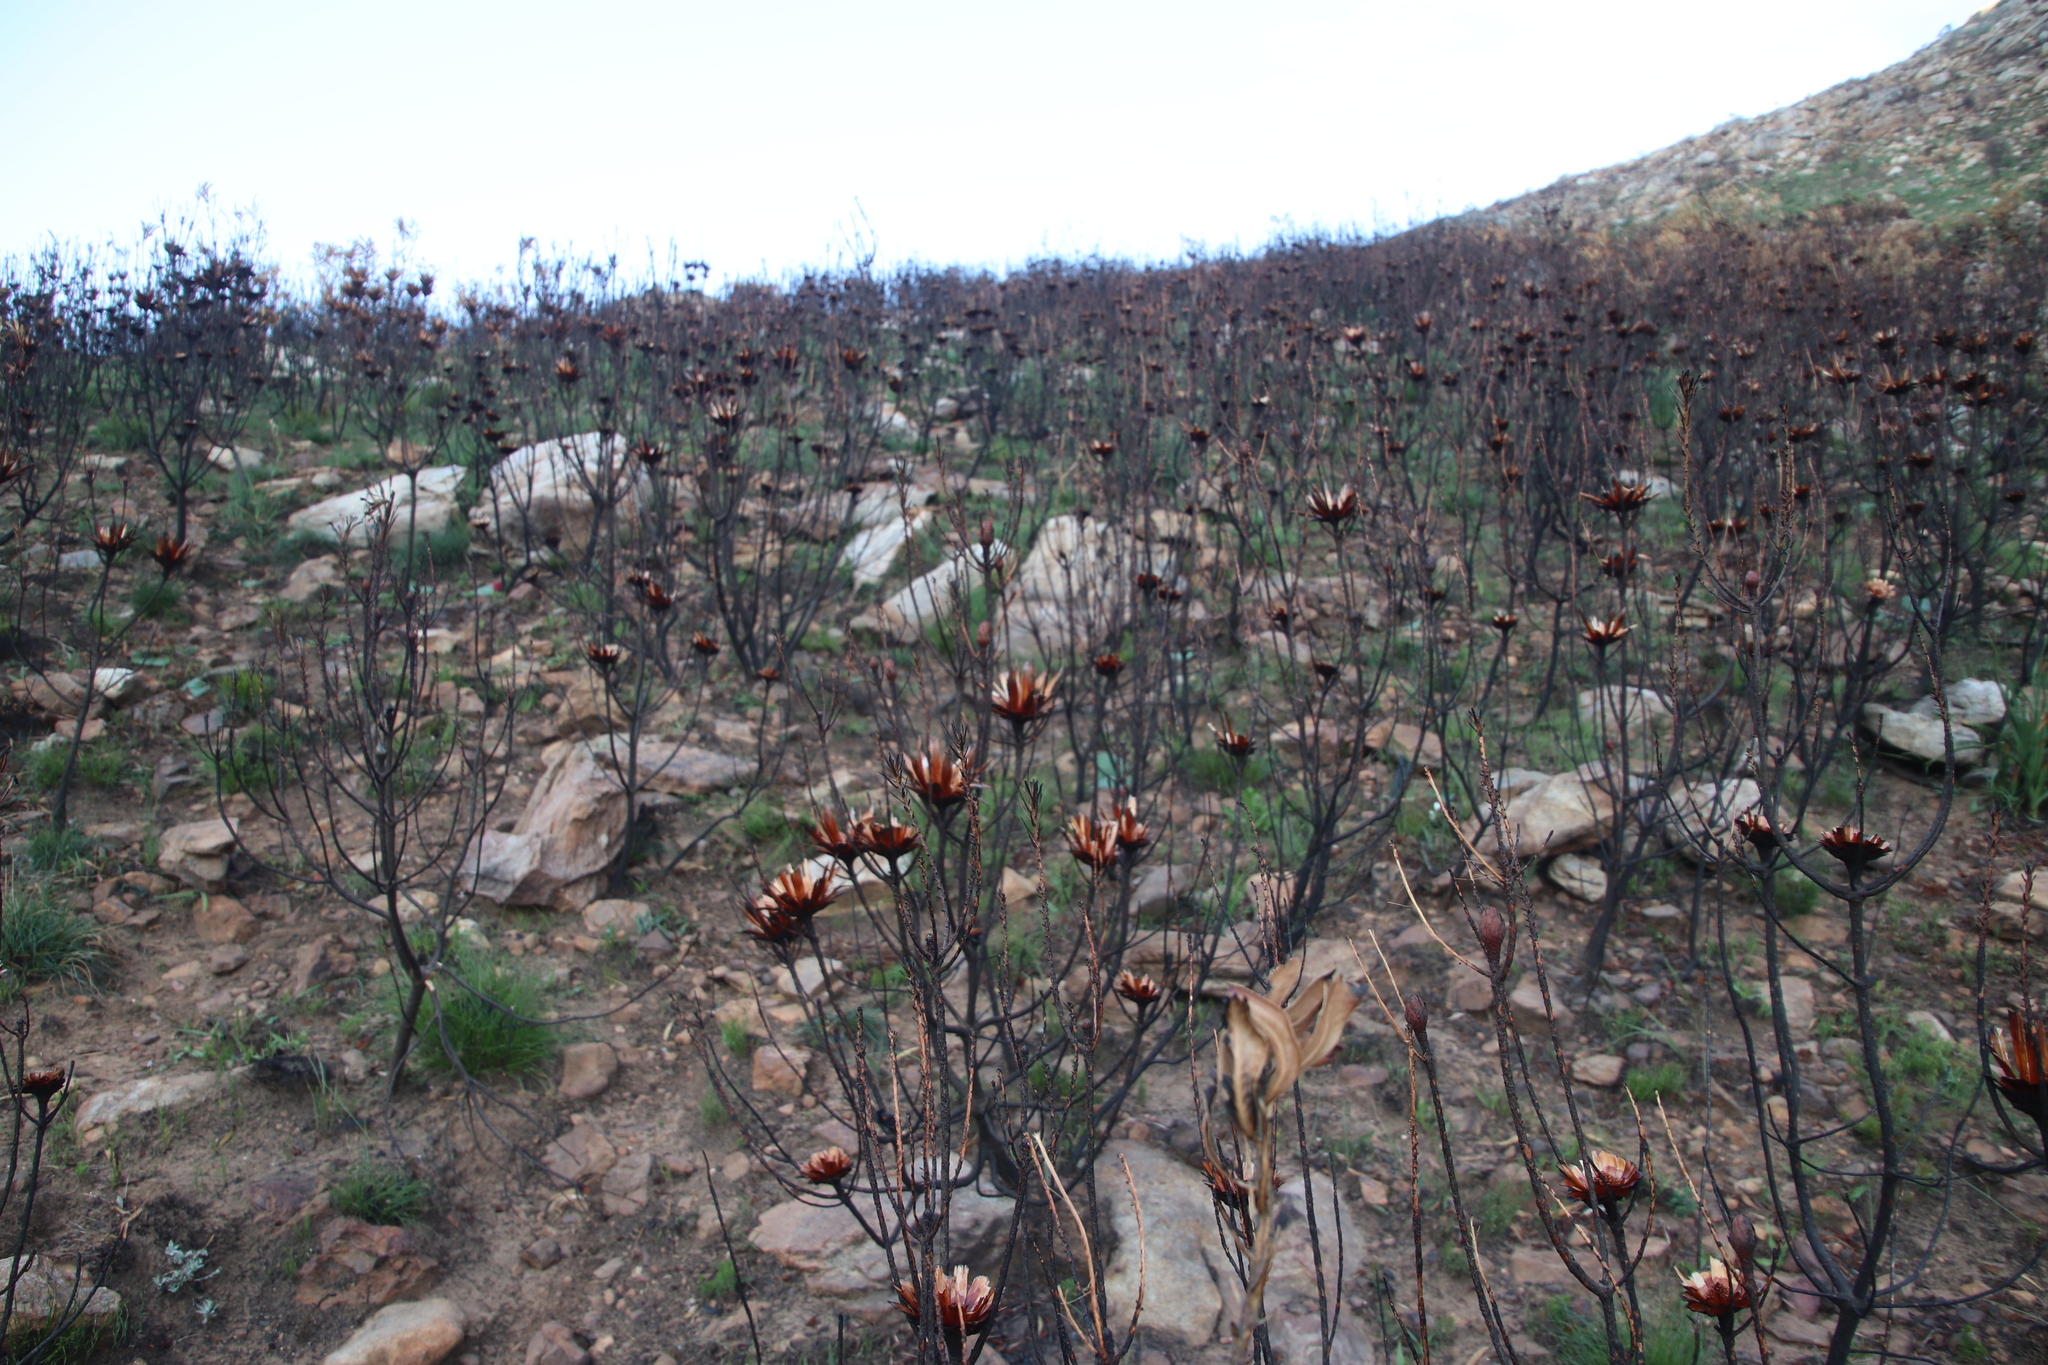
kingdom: Plantae
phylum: Tracheophyta
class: Magnoliopsida
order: Proteales
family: Proteaceae
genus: Protea
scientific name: Protea repens
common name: Sugarbush
